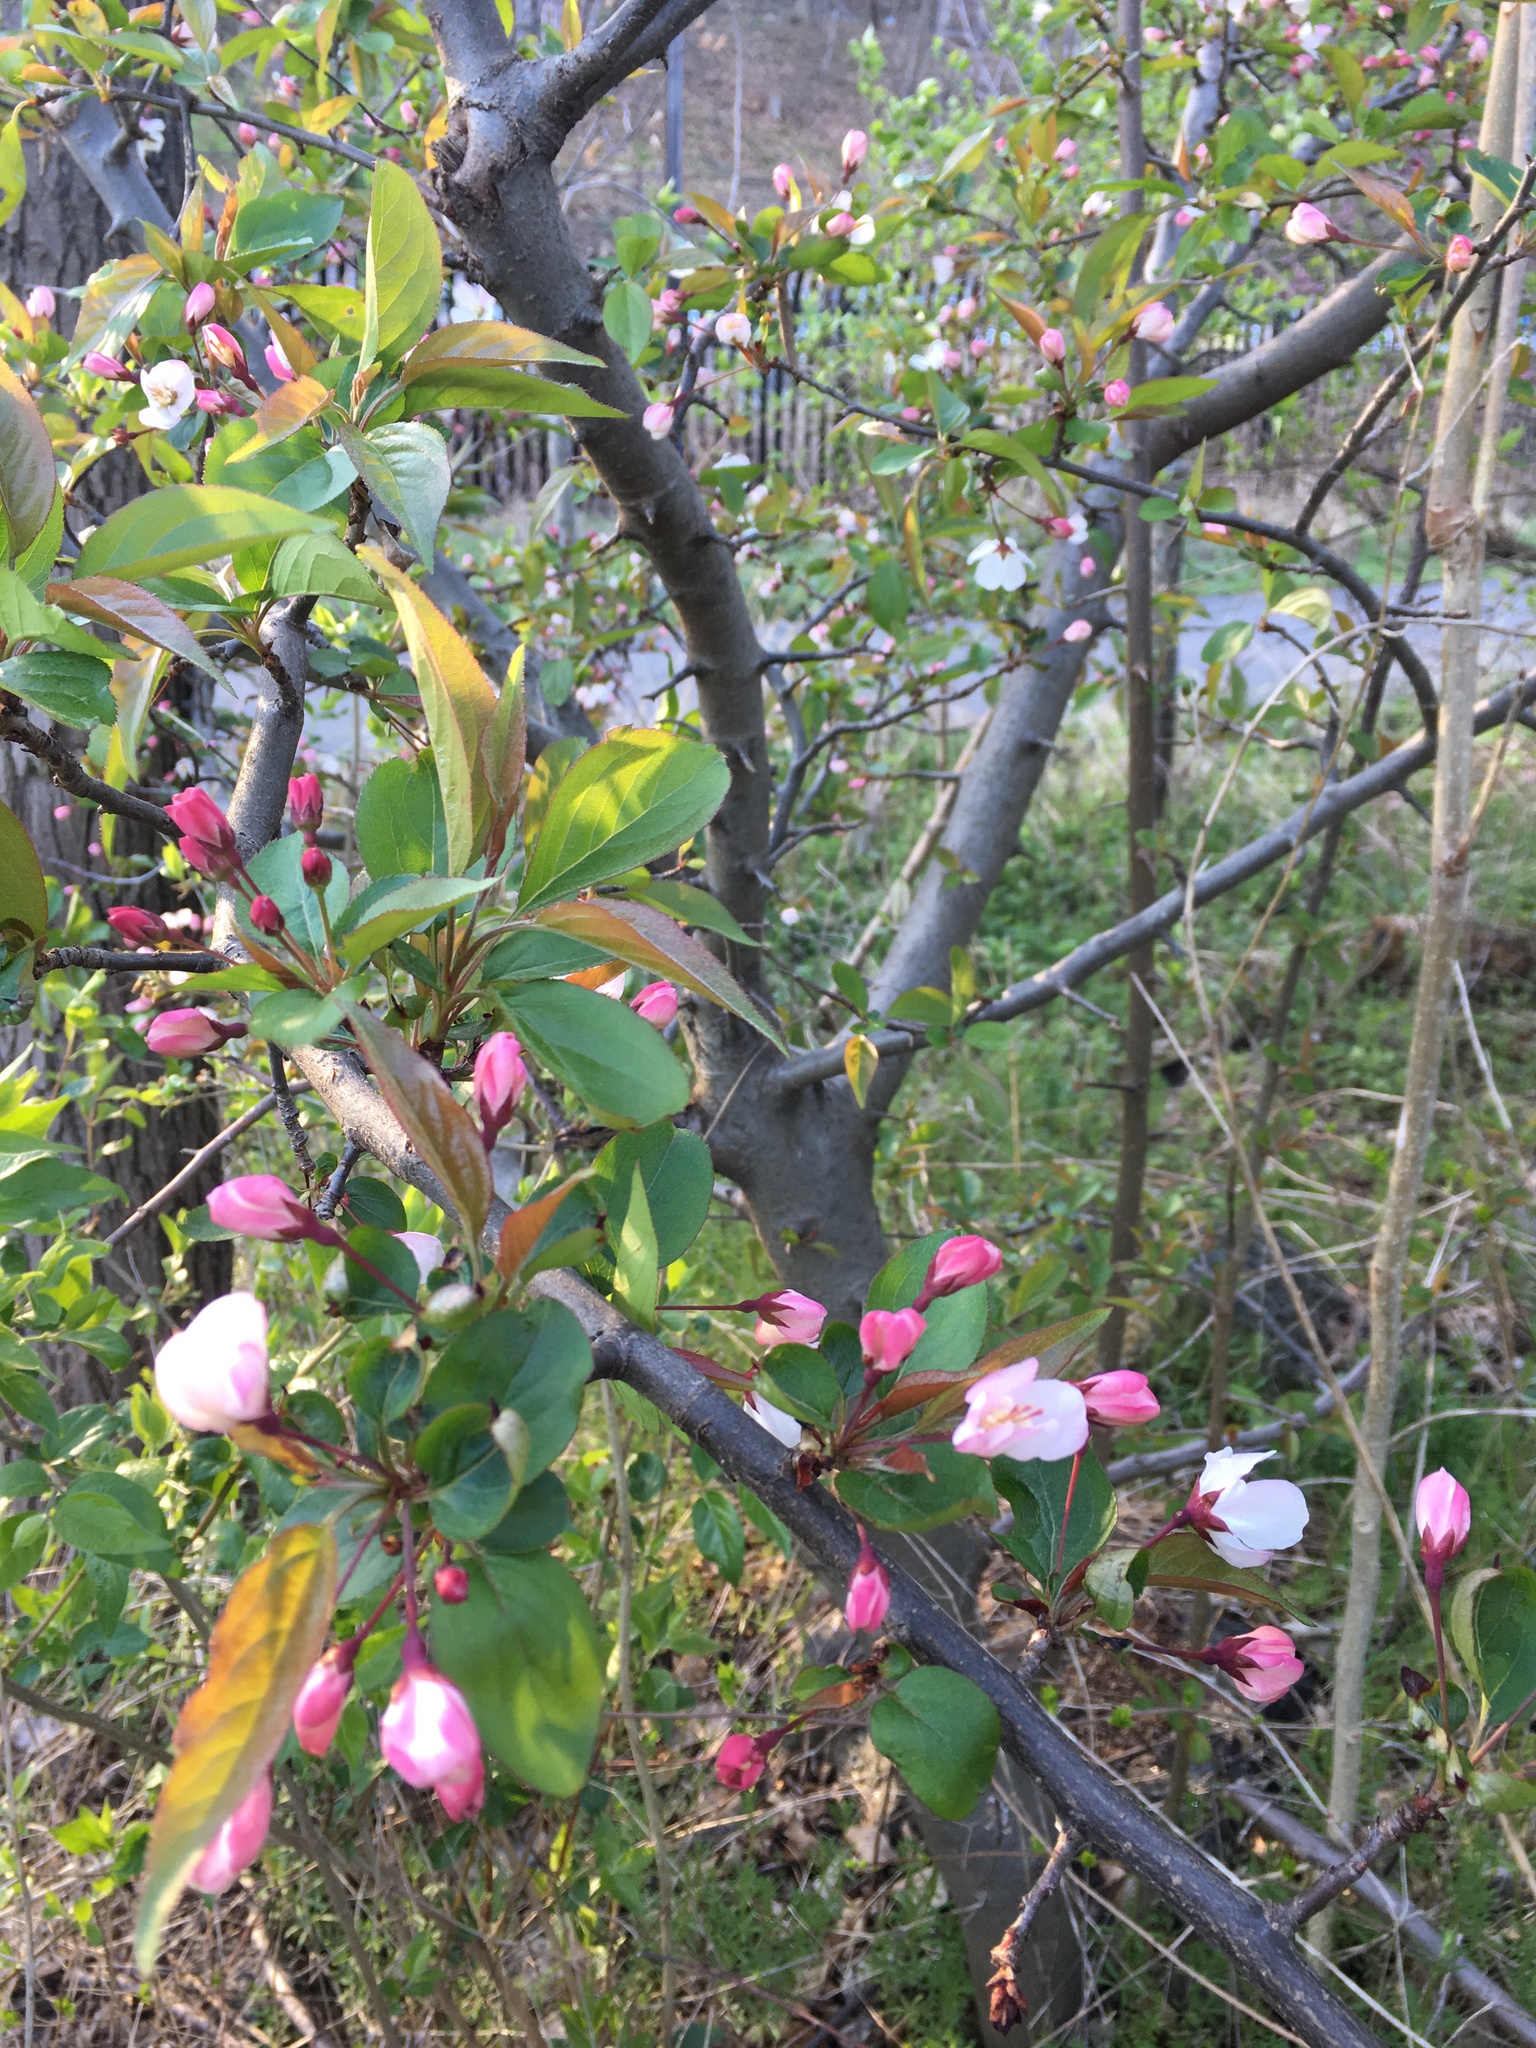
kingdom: Plantae
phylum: Tracheophyta
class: Magnoliopsida
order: Rosales
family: Rosaceae
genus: Malus
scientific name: Malus hupehensis
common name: Chinese crab apple
